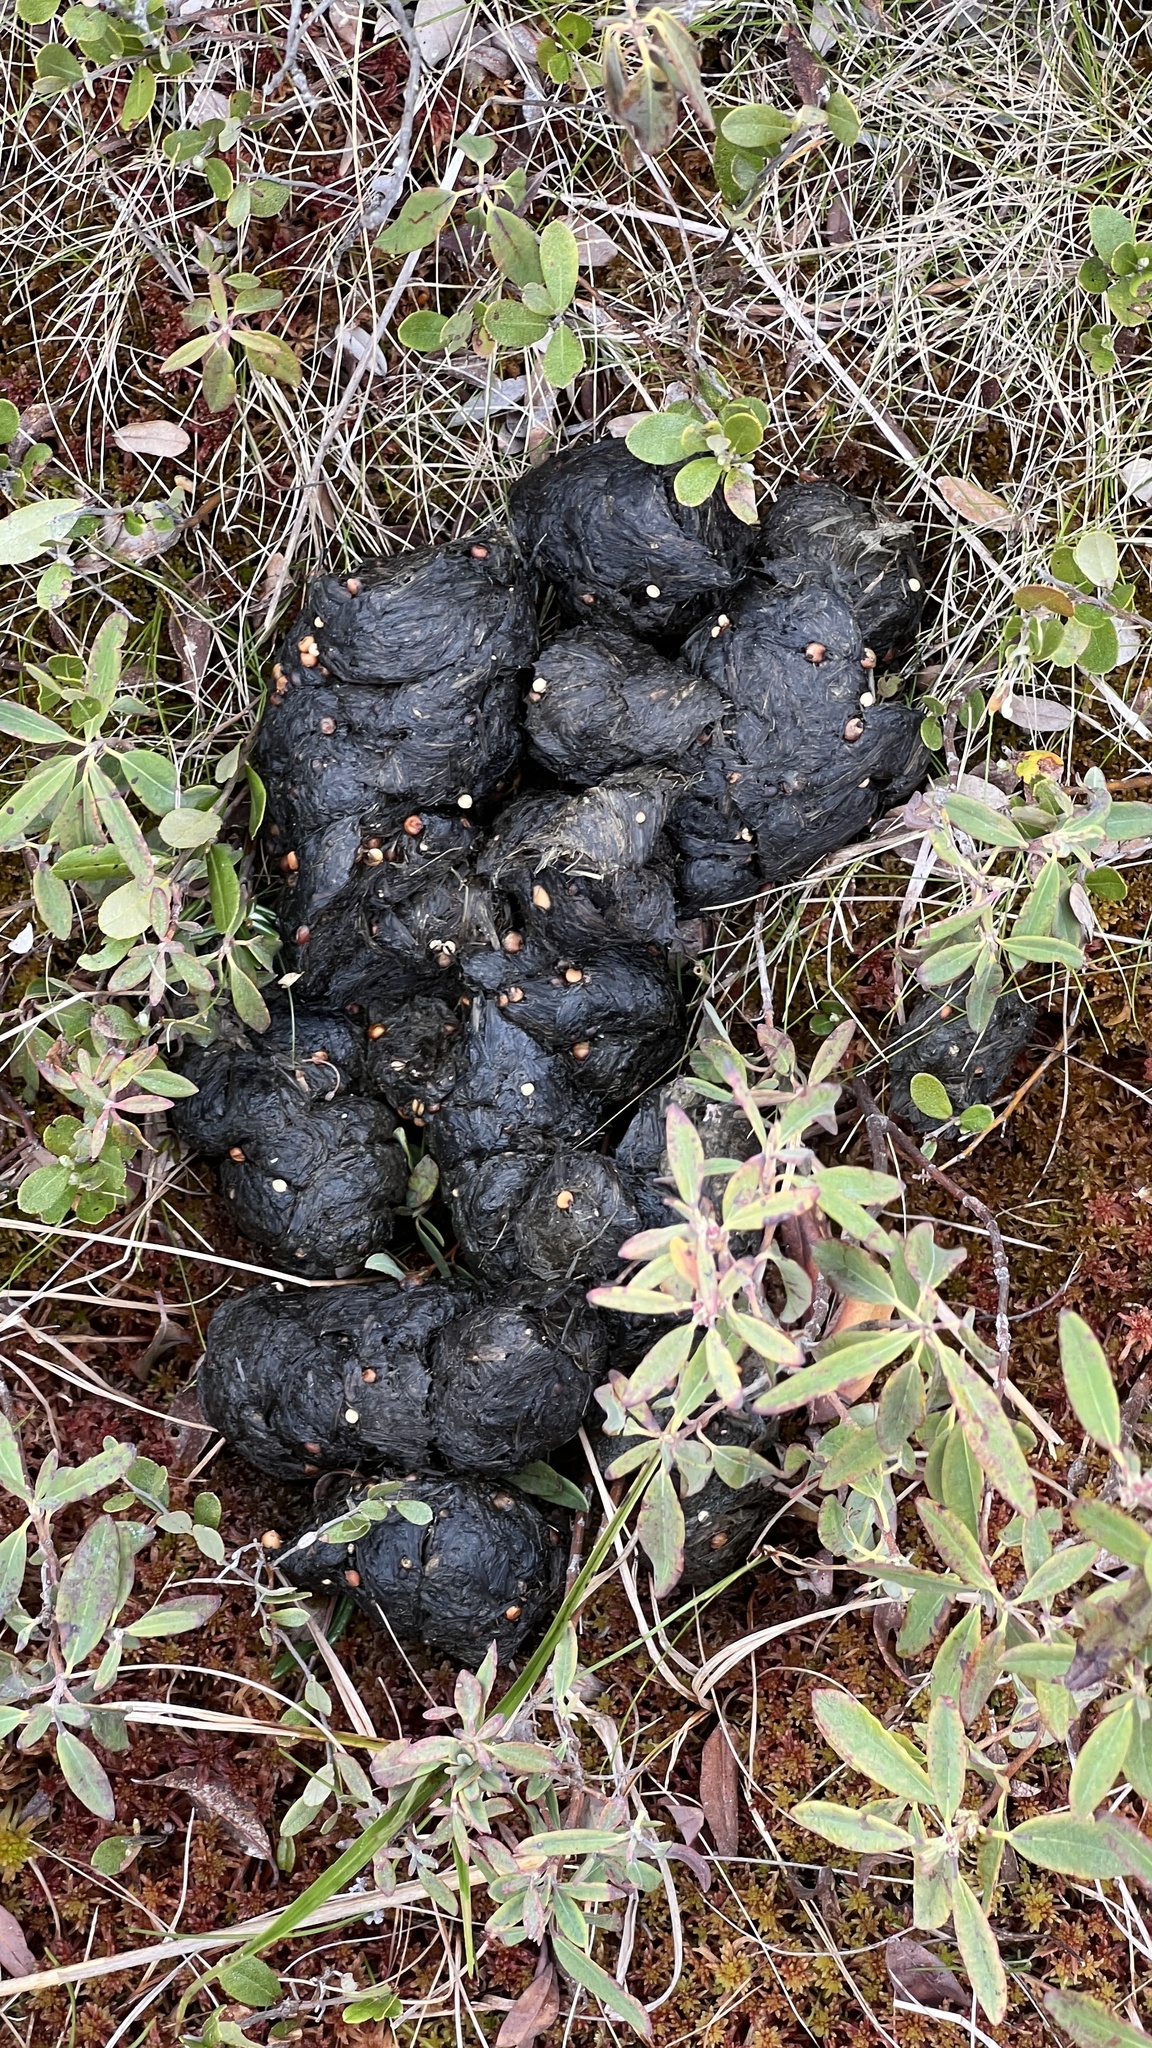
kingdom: Animalia
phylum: Chordata
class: Mammalia
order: Carnivora
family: Ursidae
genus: Ursus
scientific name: Ursus americanus
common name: American black bear
